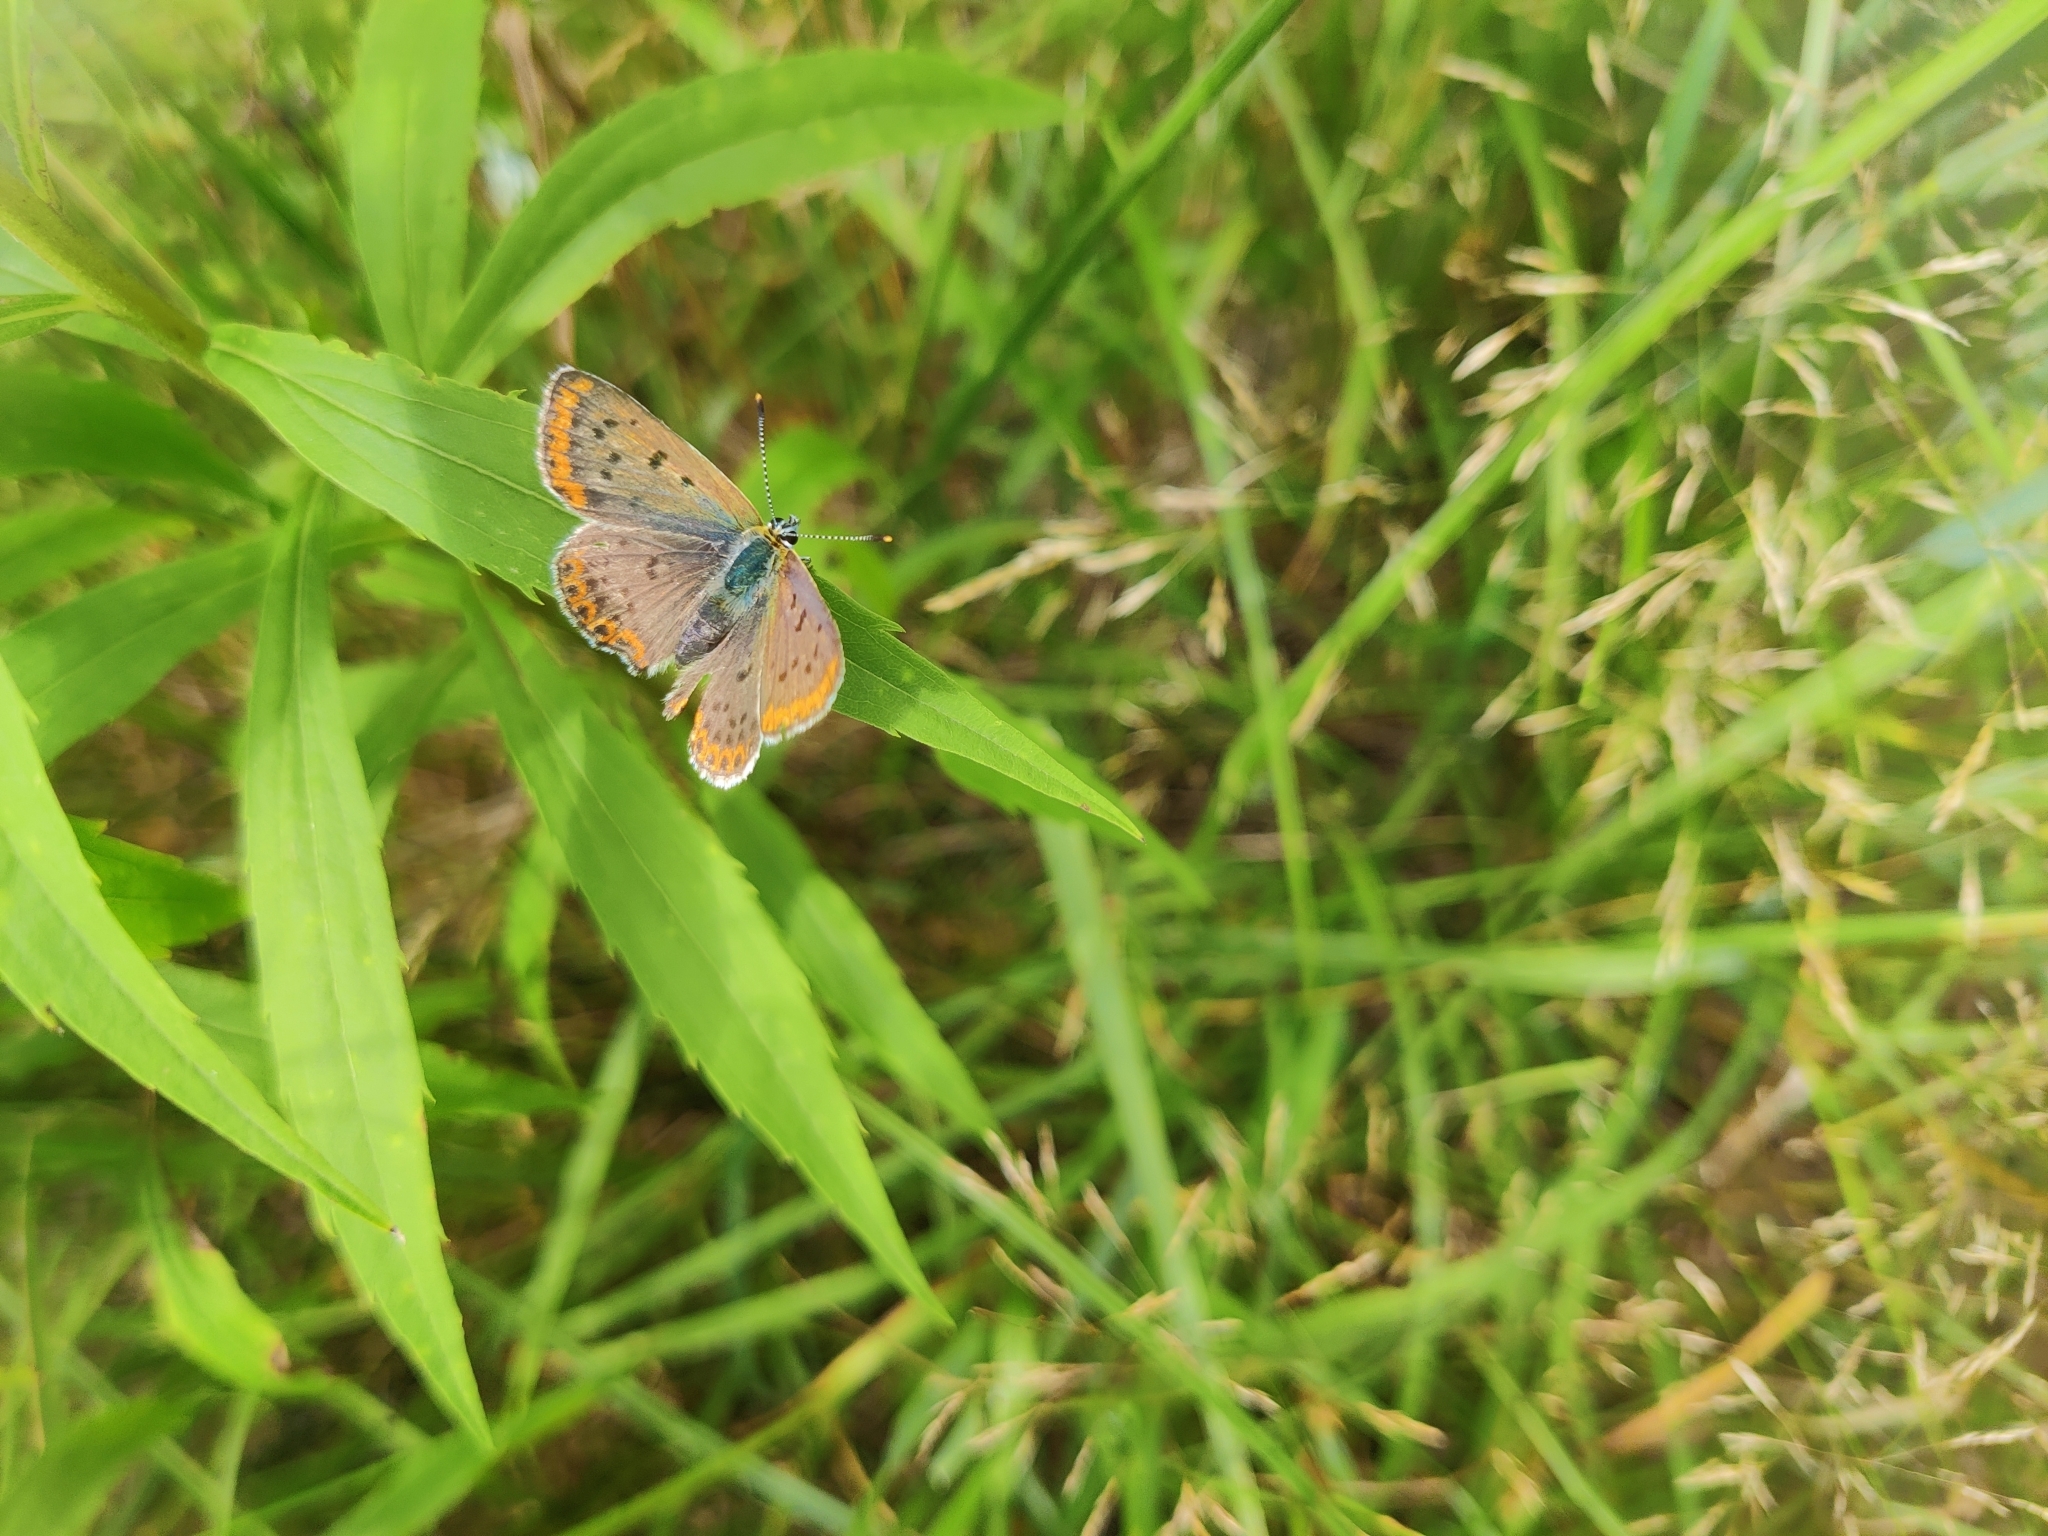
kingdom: Animalia
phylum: Arthropoda
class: Insecta
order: Lepidoptera
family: Lycaenidae
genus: Loweia
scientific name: Loweia tityrus
